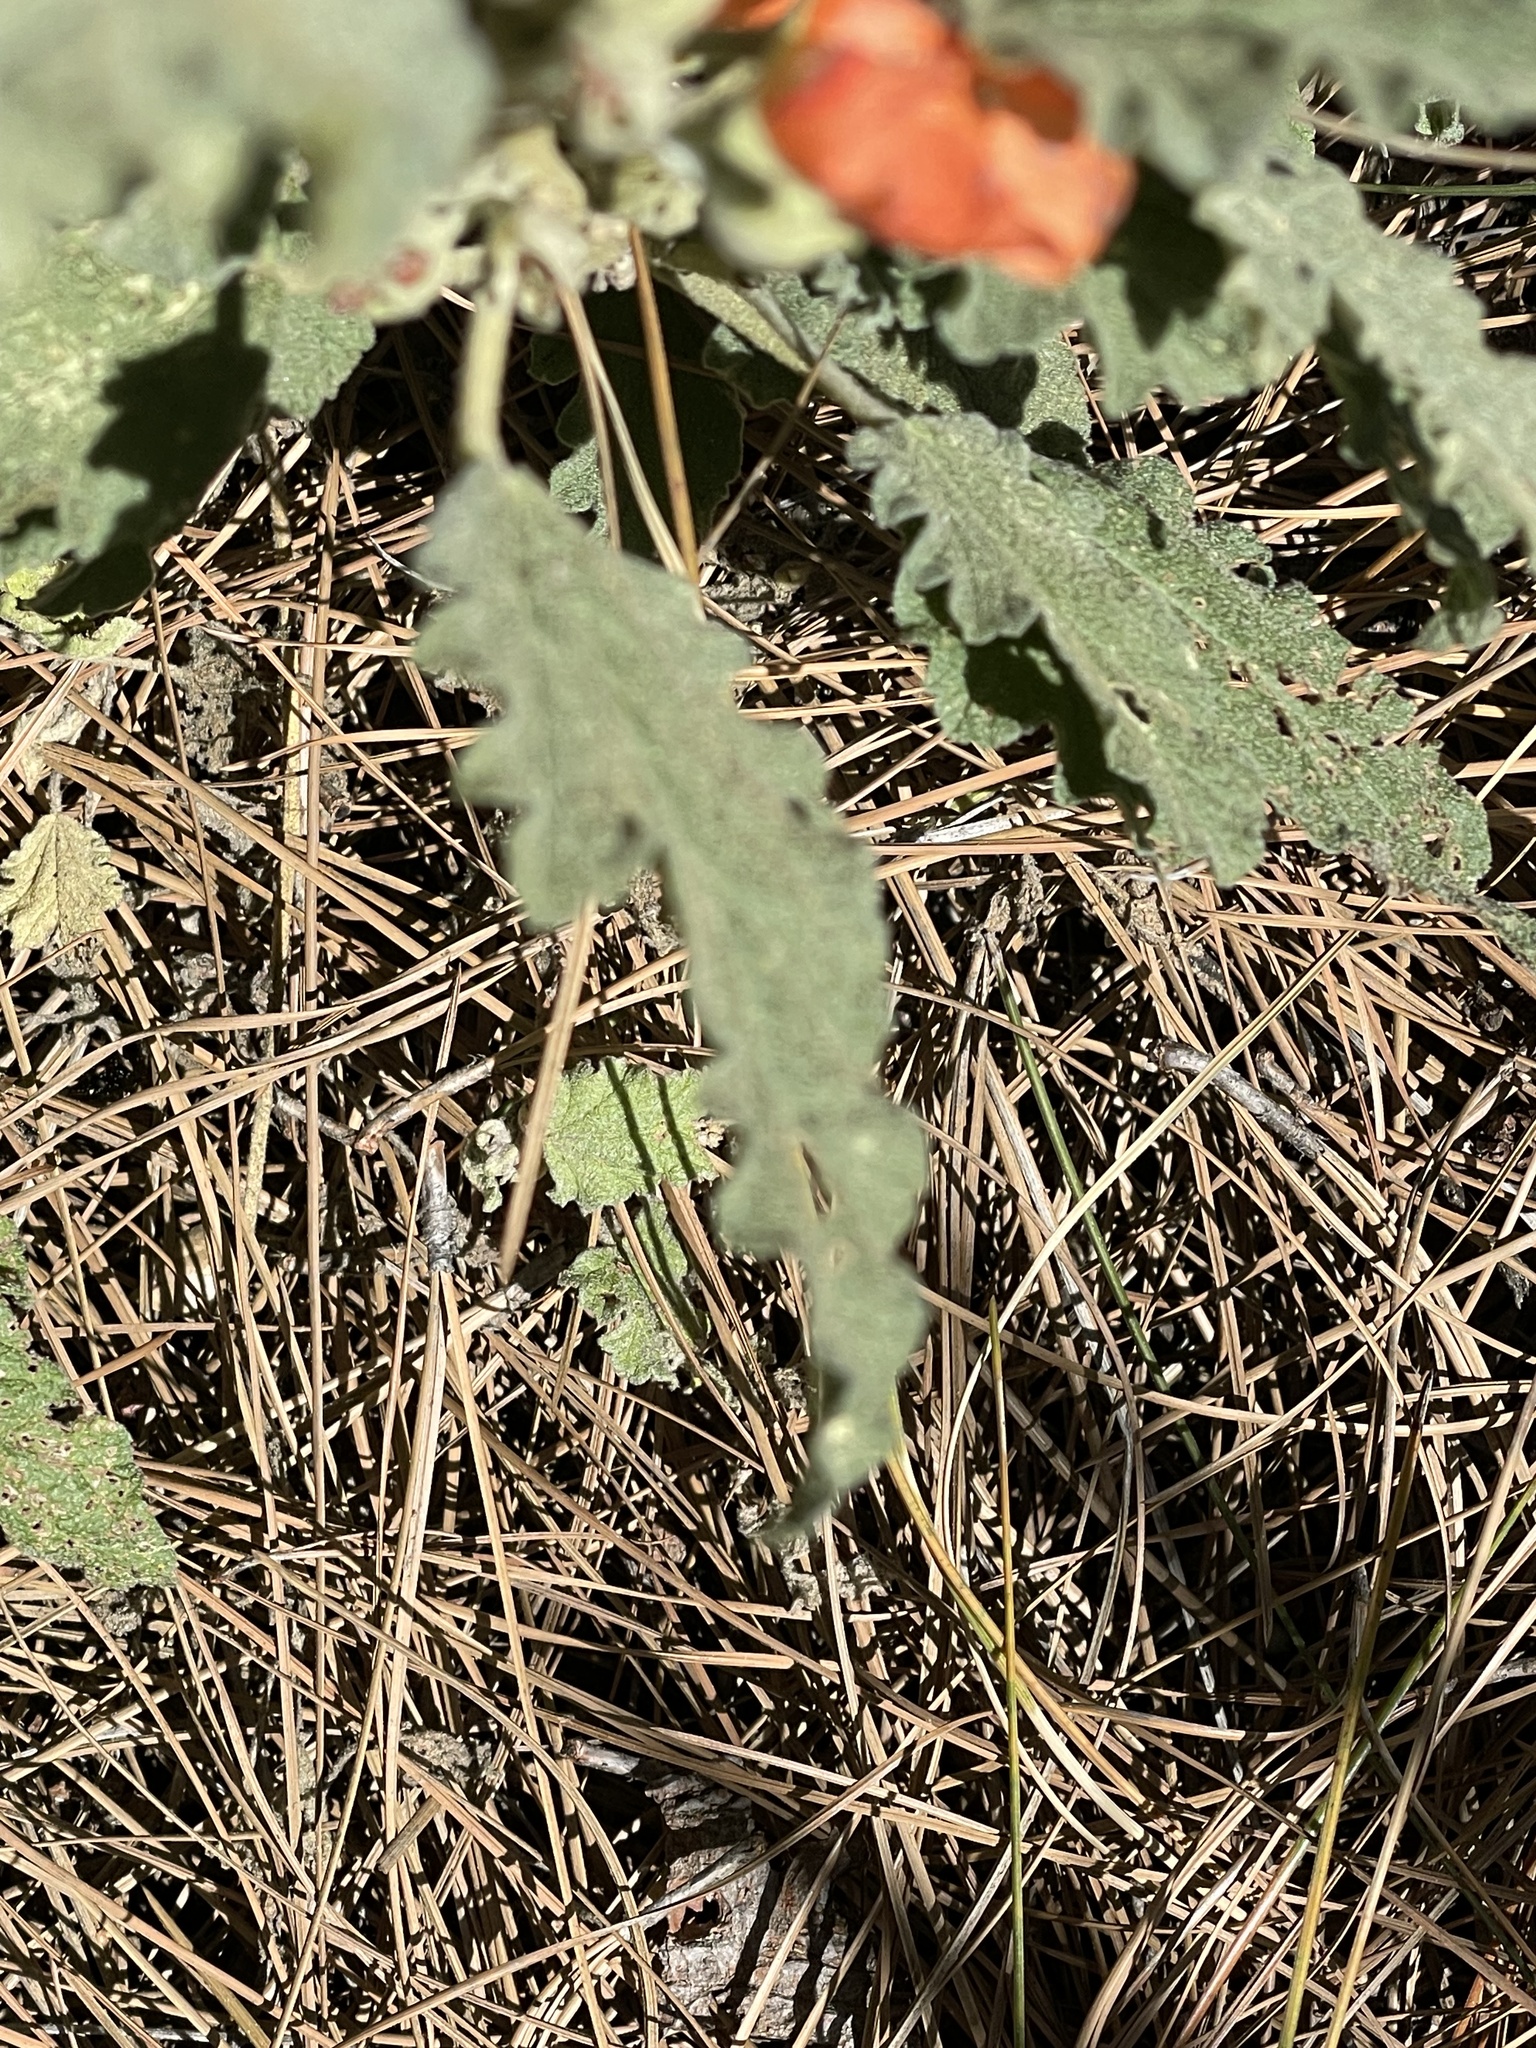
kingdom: Plantae
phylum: Tracheophyta
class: Magnoliopsida
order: Malvales
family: Malvaceae
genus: Sphaeralcea
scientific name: Sphaeralcea hastulata
